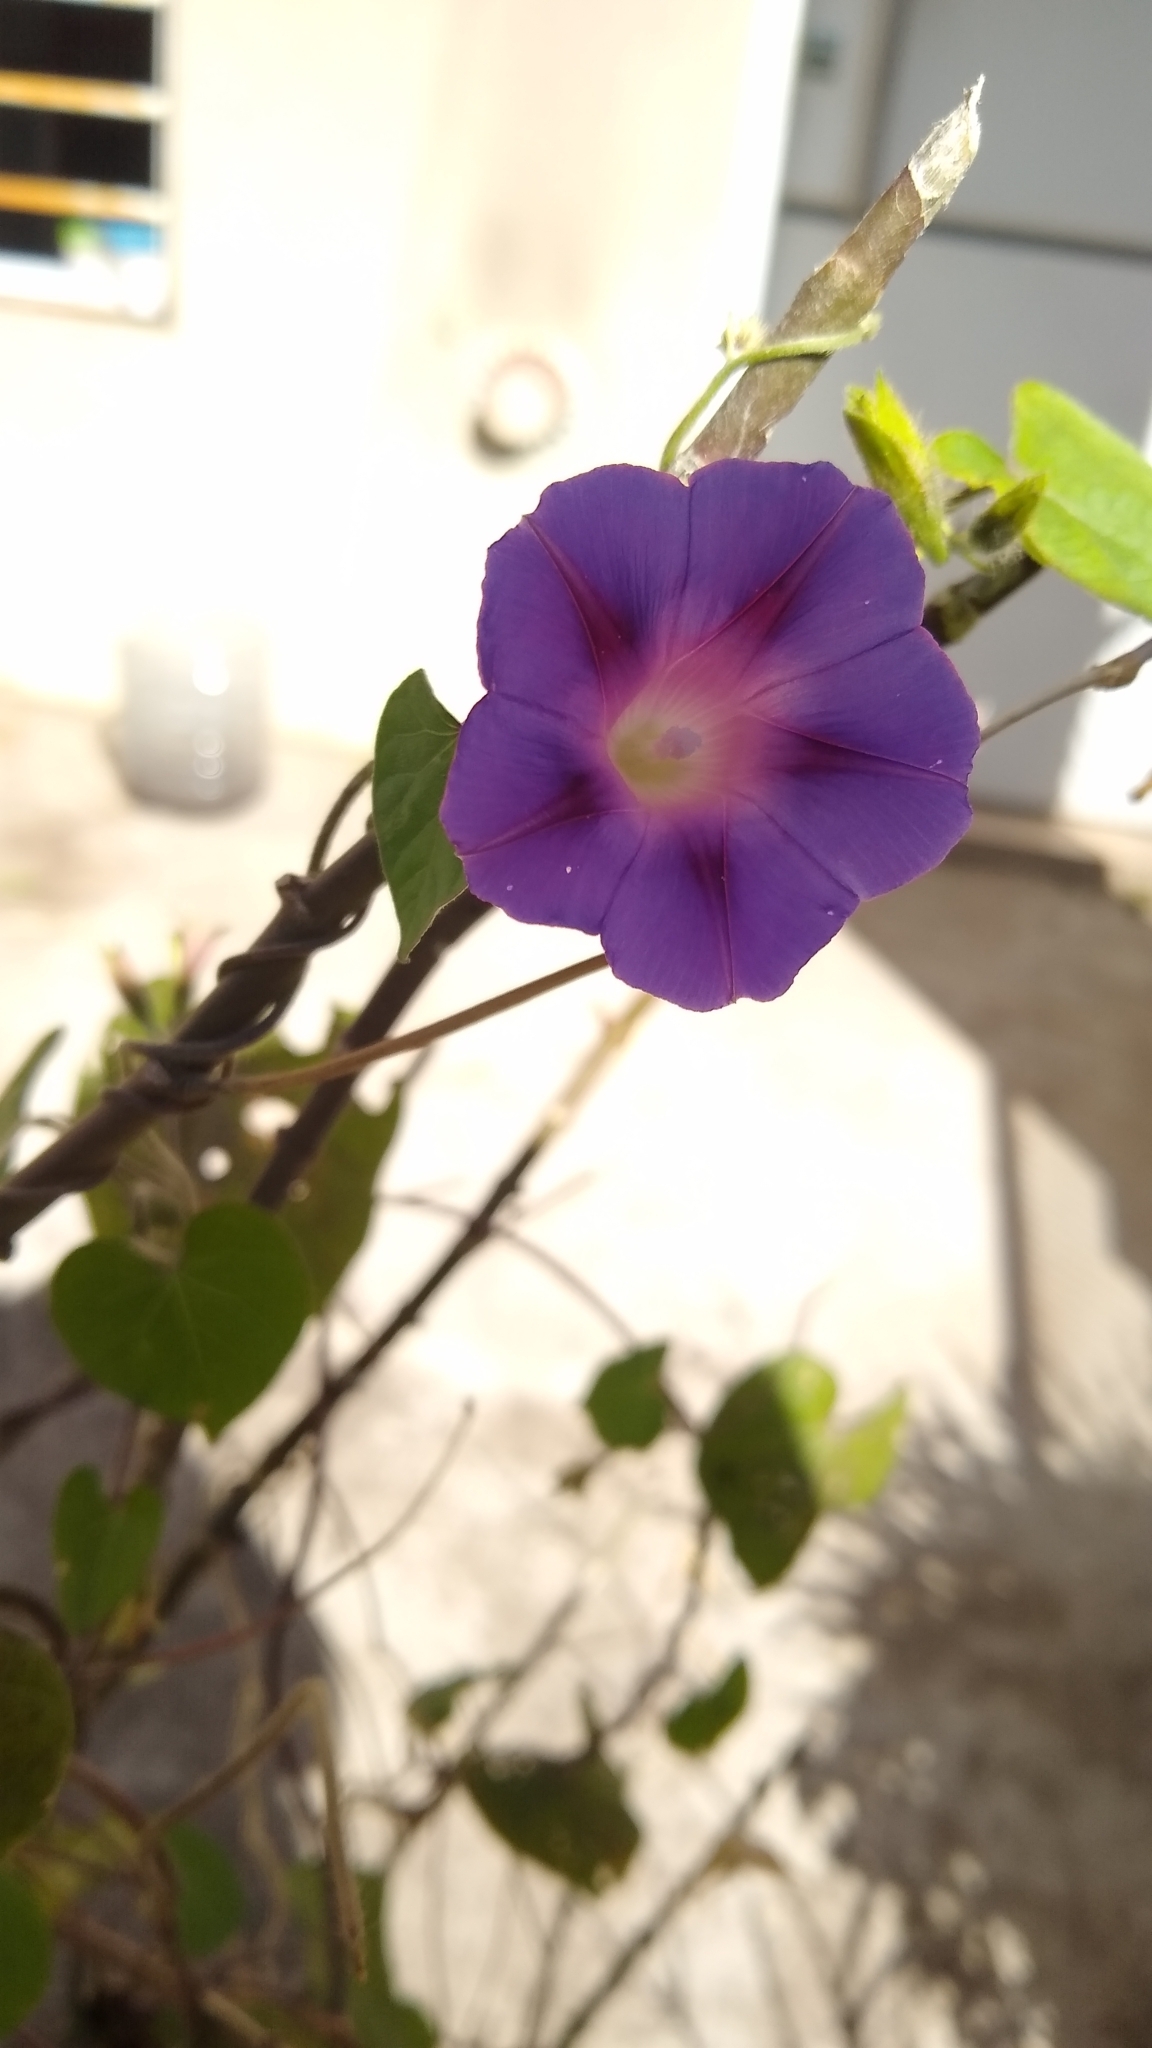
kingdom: Plantae
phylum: Tracheophyta
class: Magnoliopsida
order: Solanales
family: Convolvulaceae
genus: Ipomoea
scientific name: Ipomoea purpurea
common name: Common morning-glory
